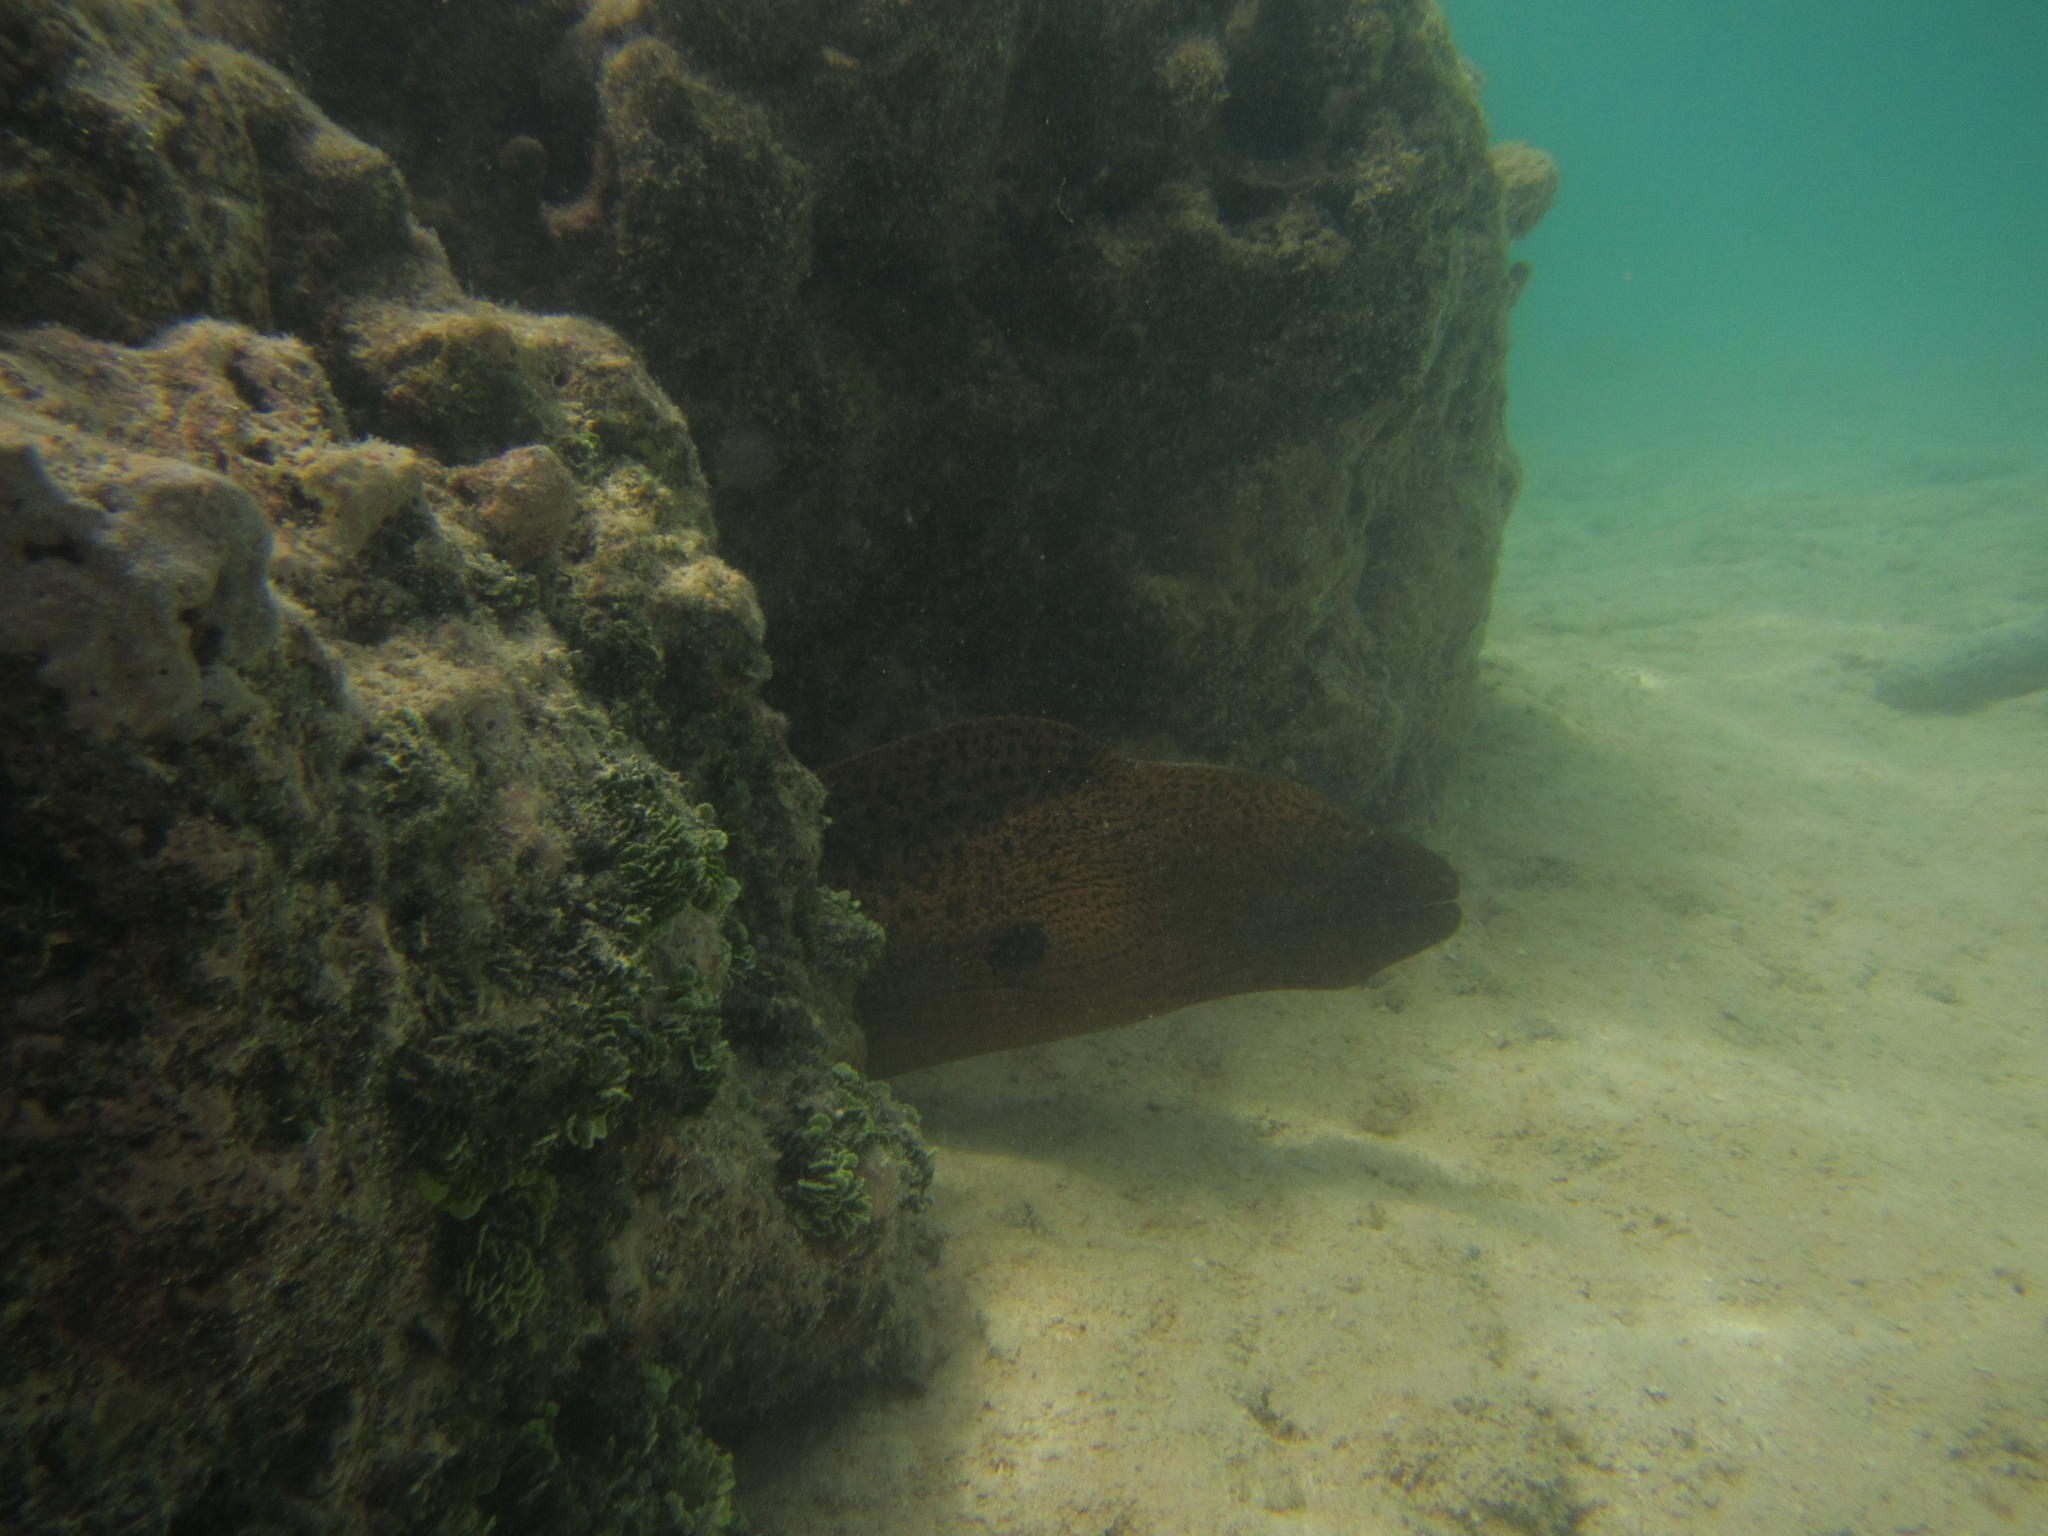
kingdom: Animalia
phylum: Chordata
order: Anguilliformes
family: Muraenidae
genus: Gymnothorax
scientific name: Gymnothorax javanicus
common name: Giant moray
